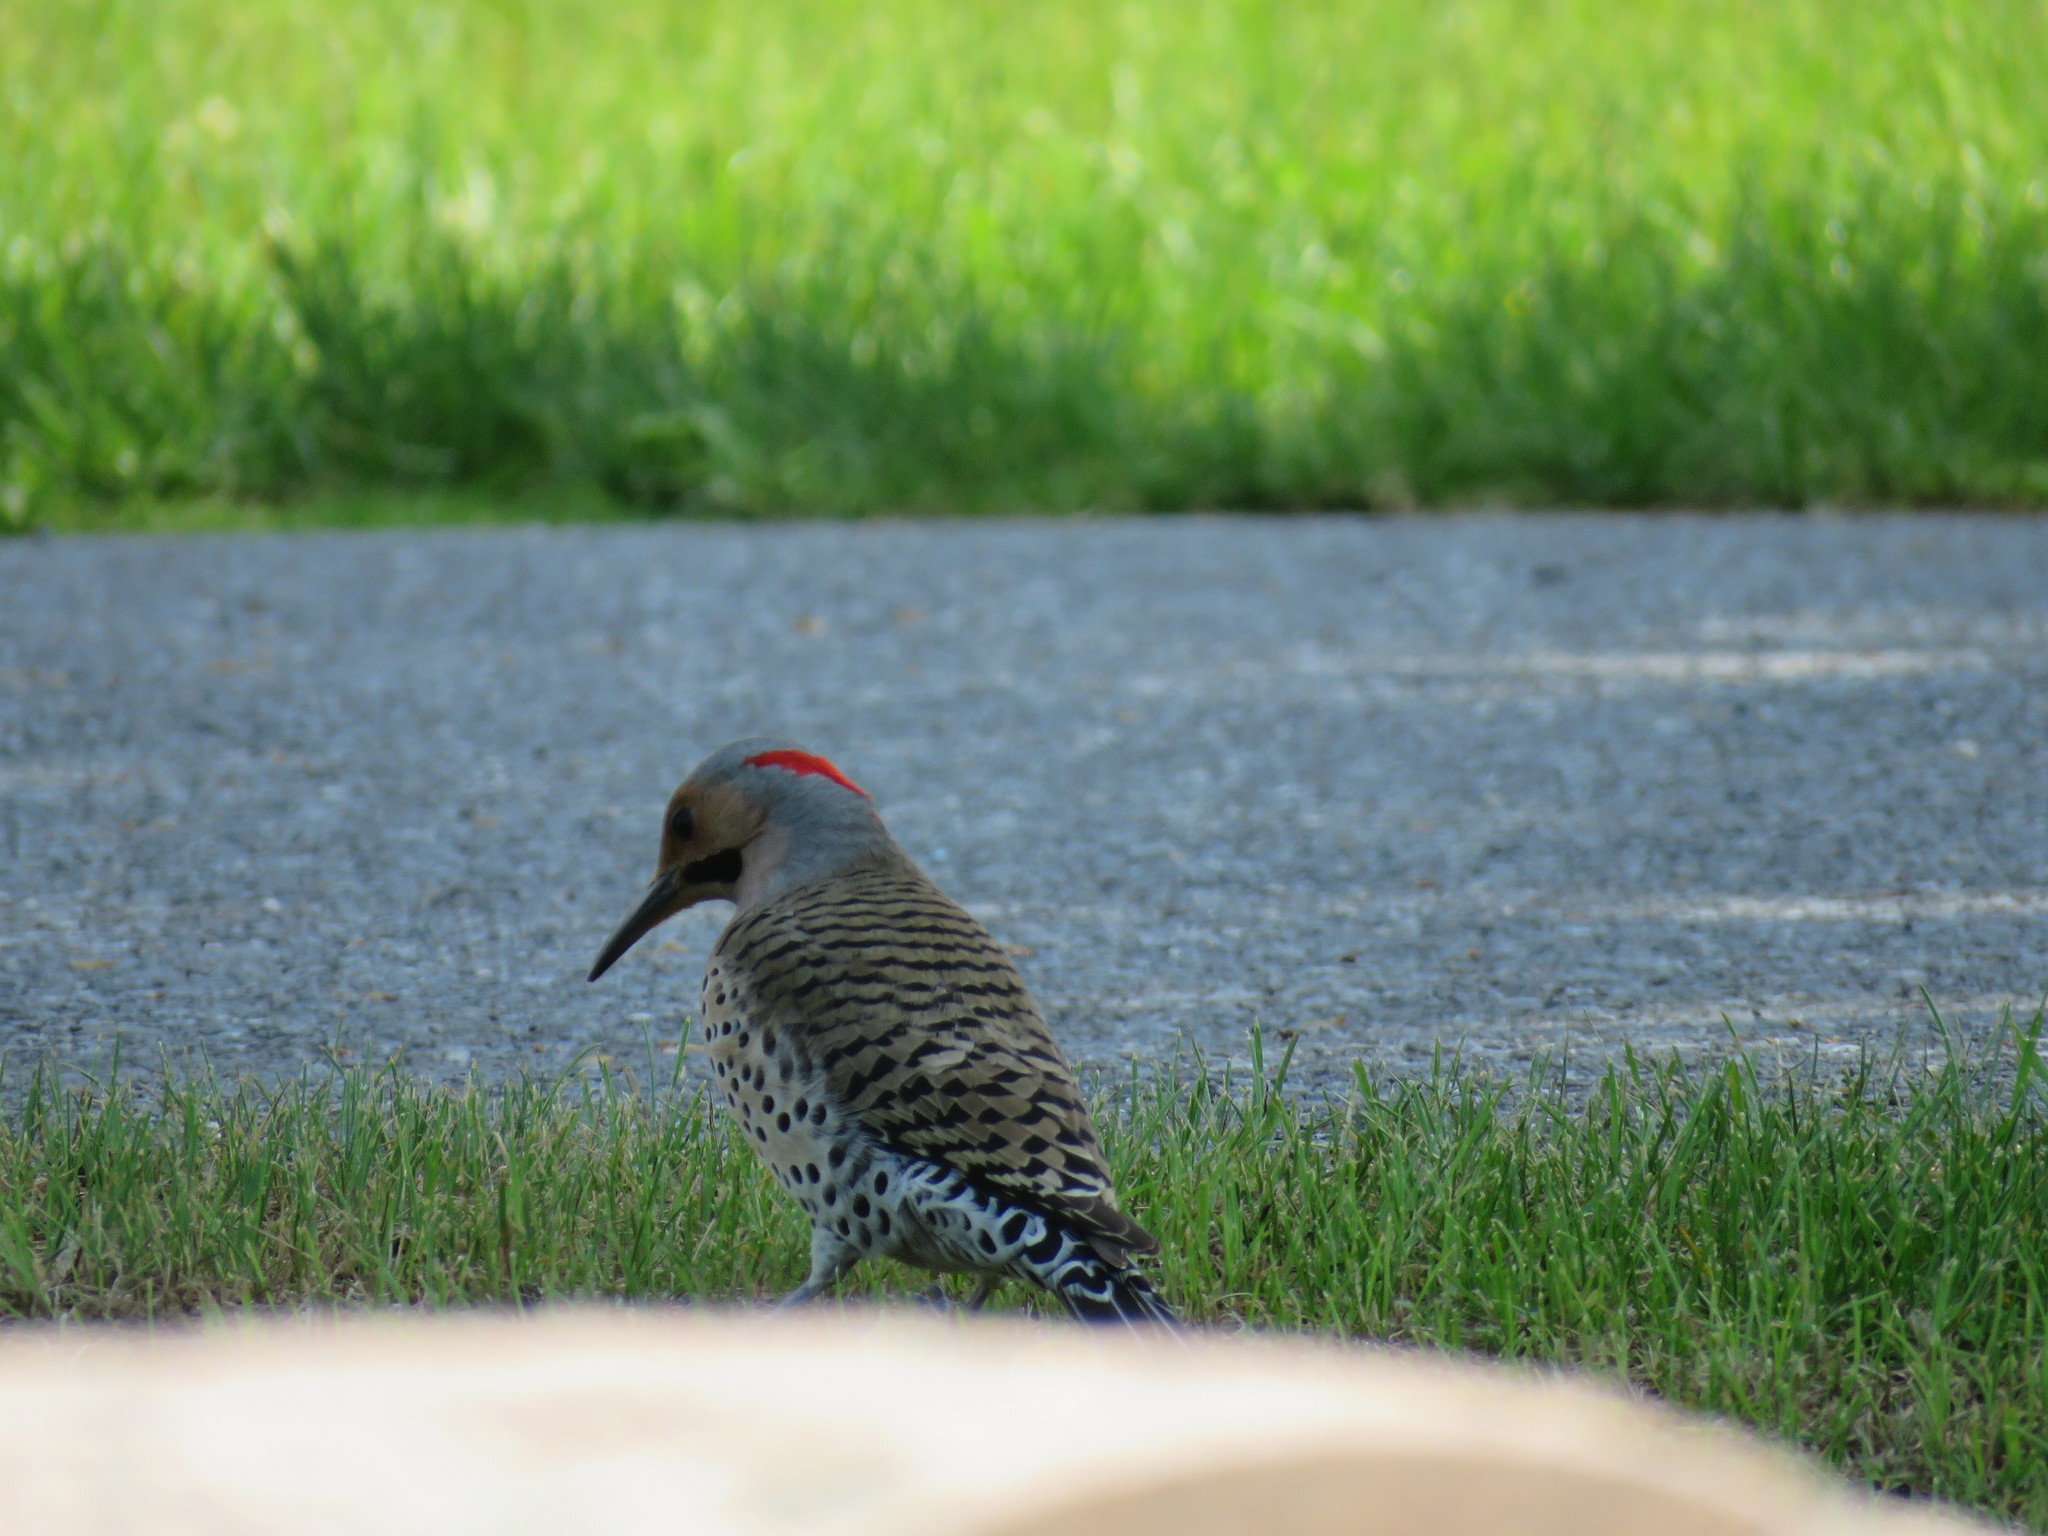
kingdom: Animalia
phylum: Chordata
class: Aves
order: Piciformes
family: Picidae
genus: Colaptes
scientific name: Colaptes auratus
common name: Northern flicker
